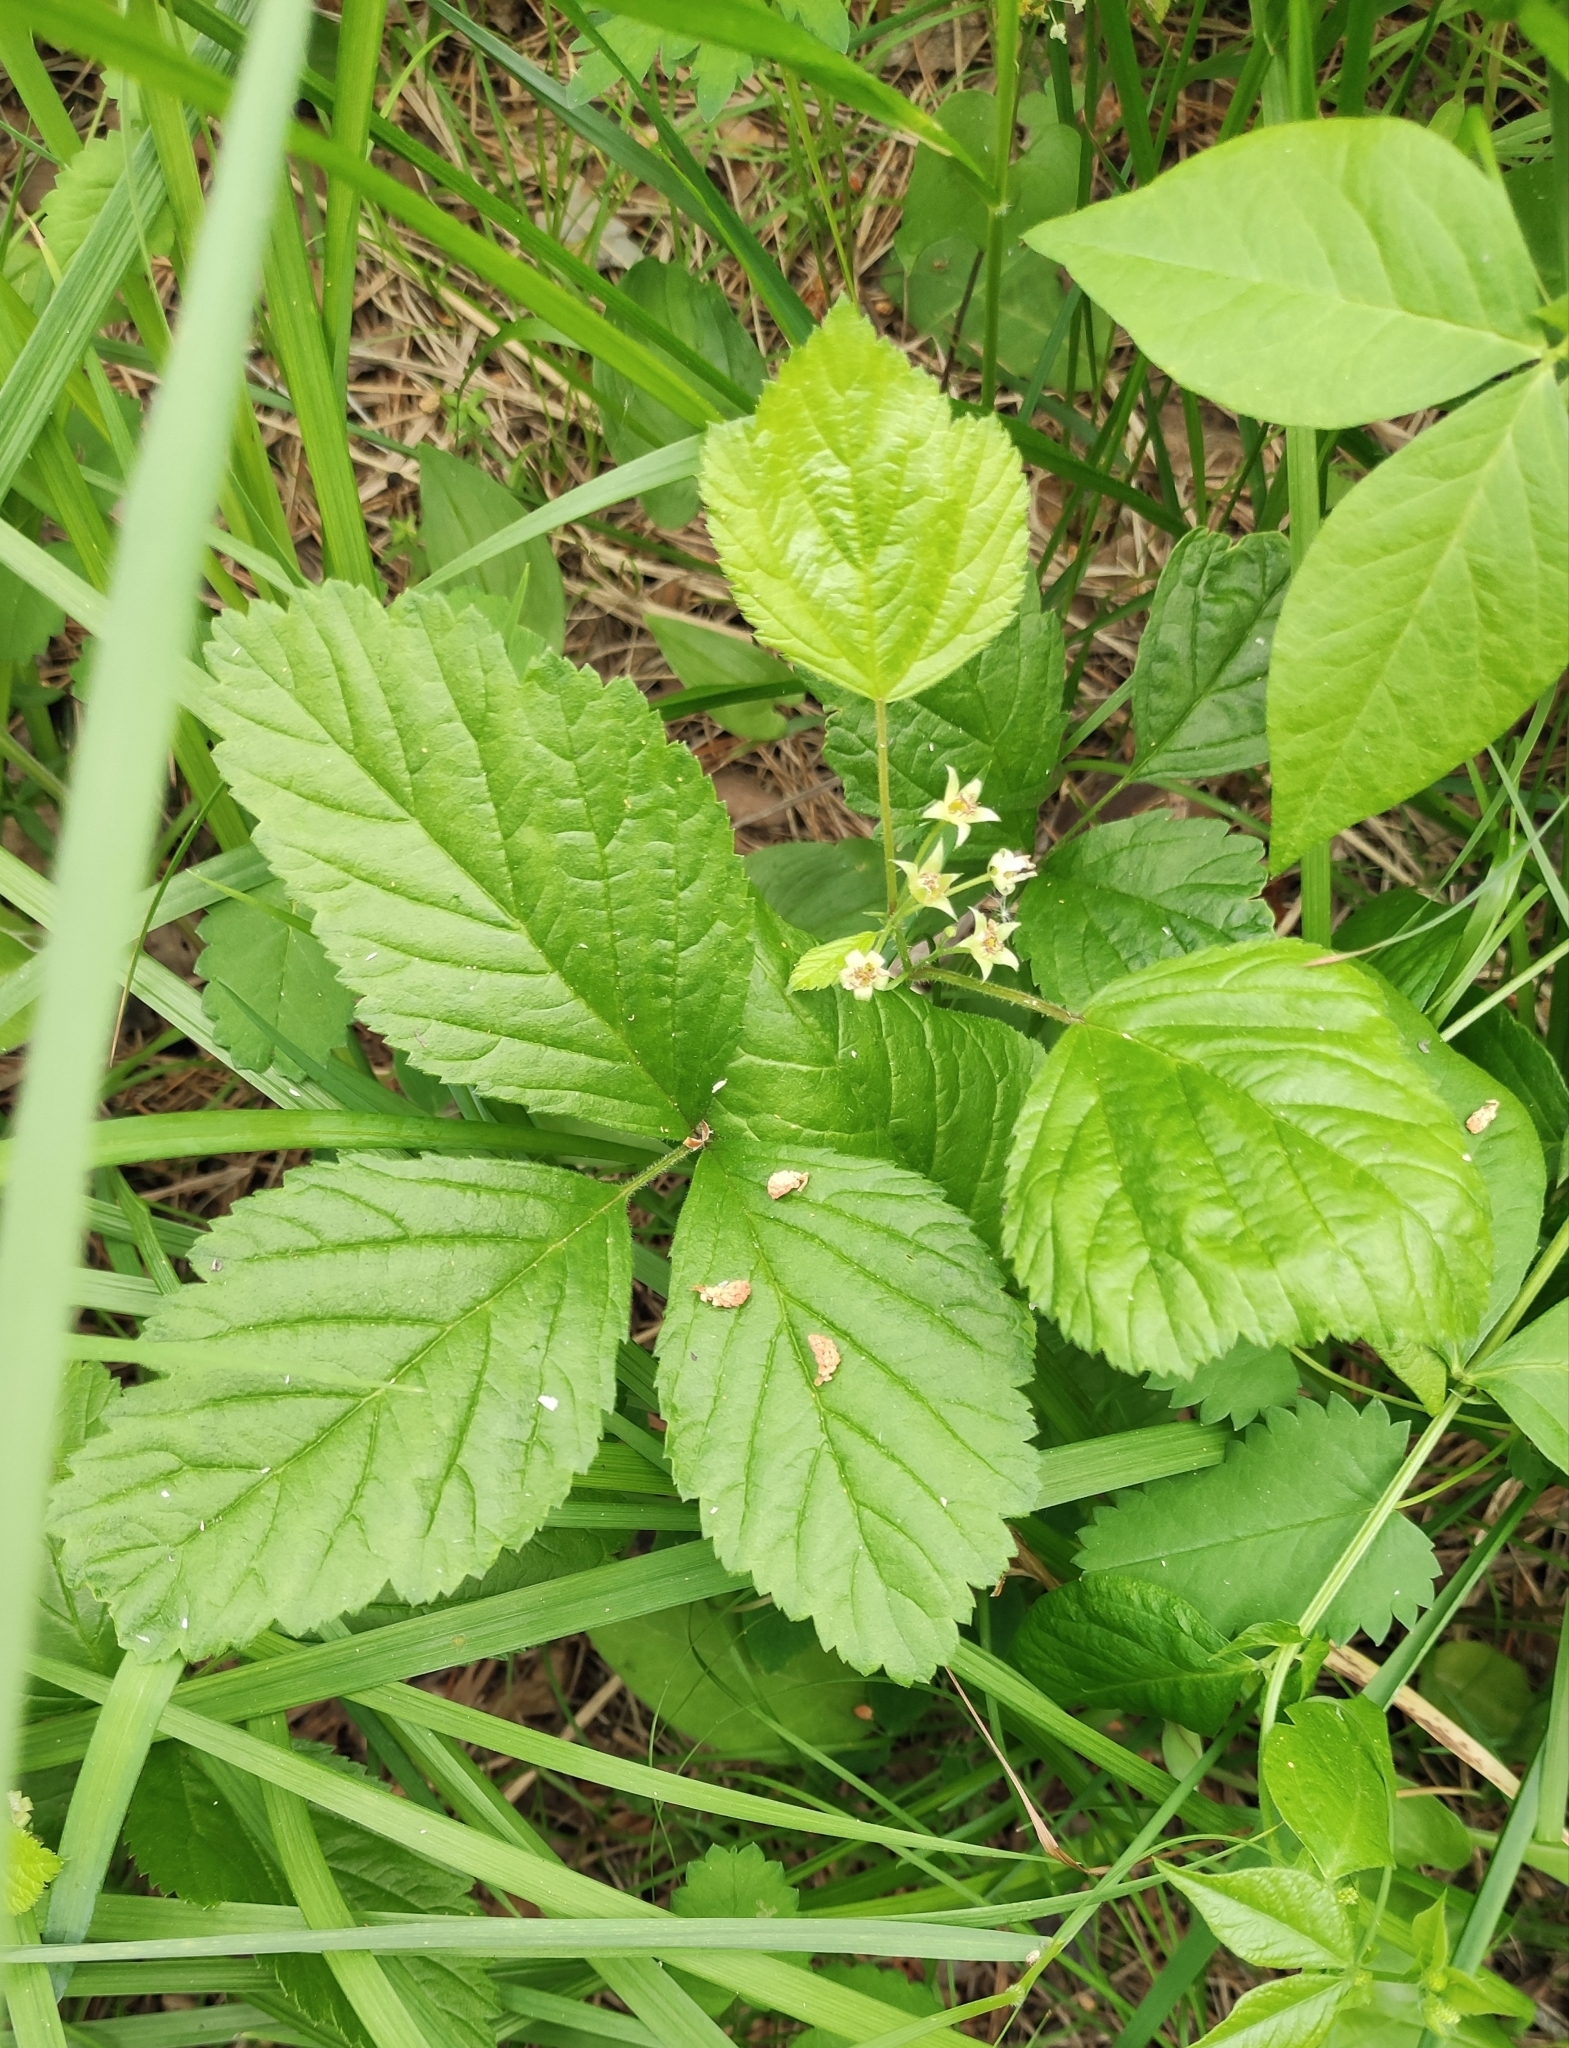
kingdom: Plantae
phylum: Tracheophyta
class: Magnoliopsida
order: Rosales
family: Rosaceae
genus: Rubus
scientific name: Rubus saxatilis
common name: Stone bramble
